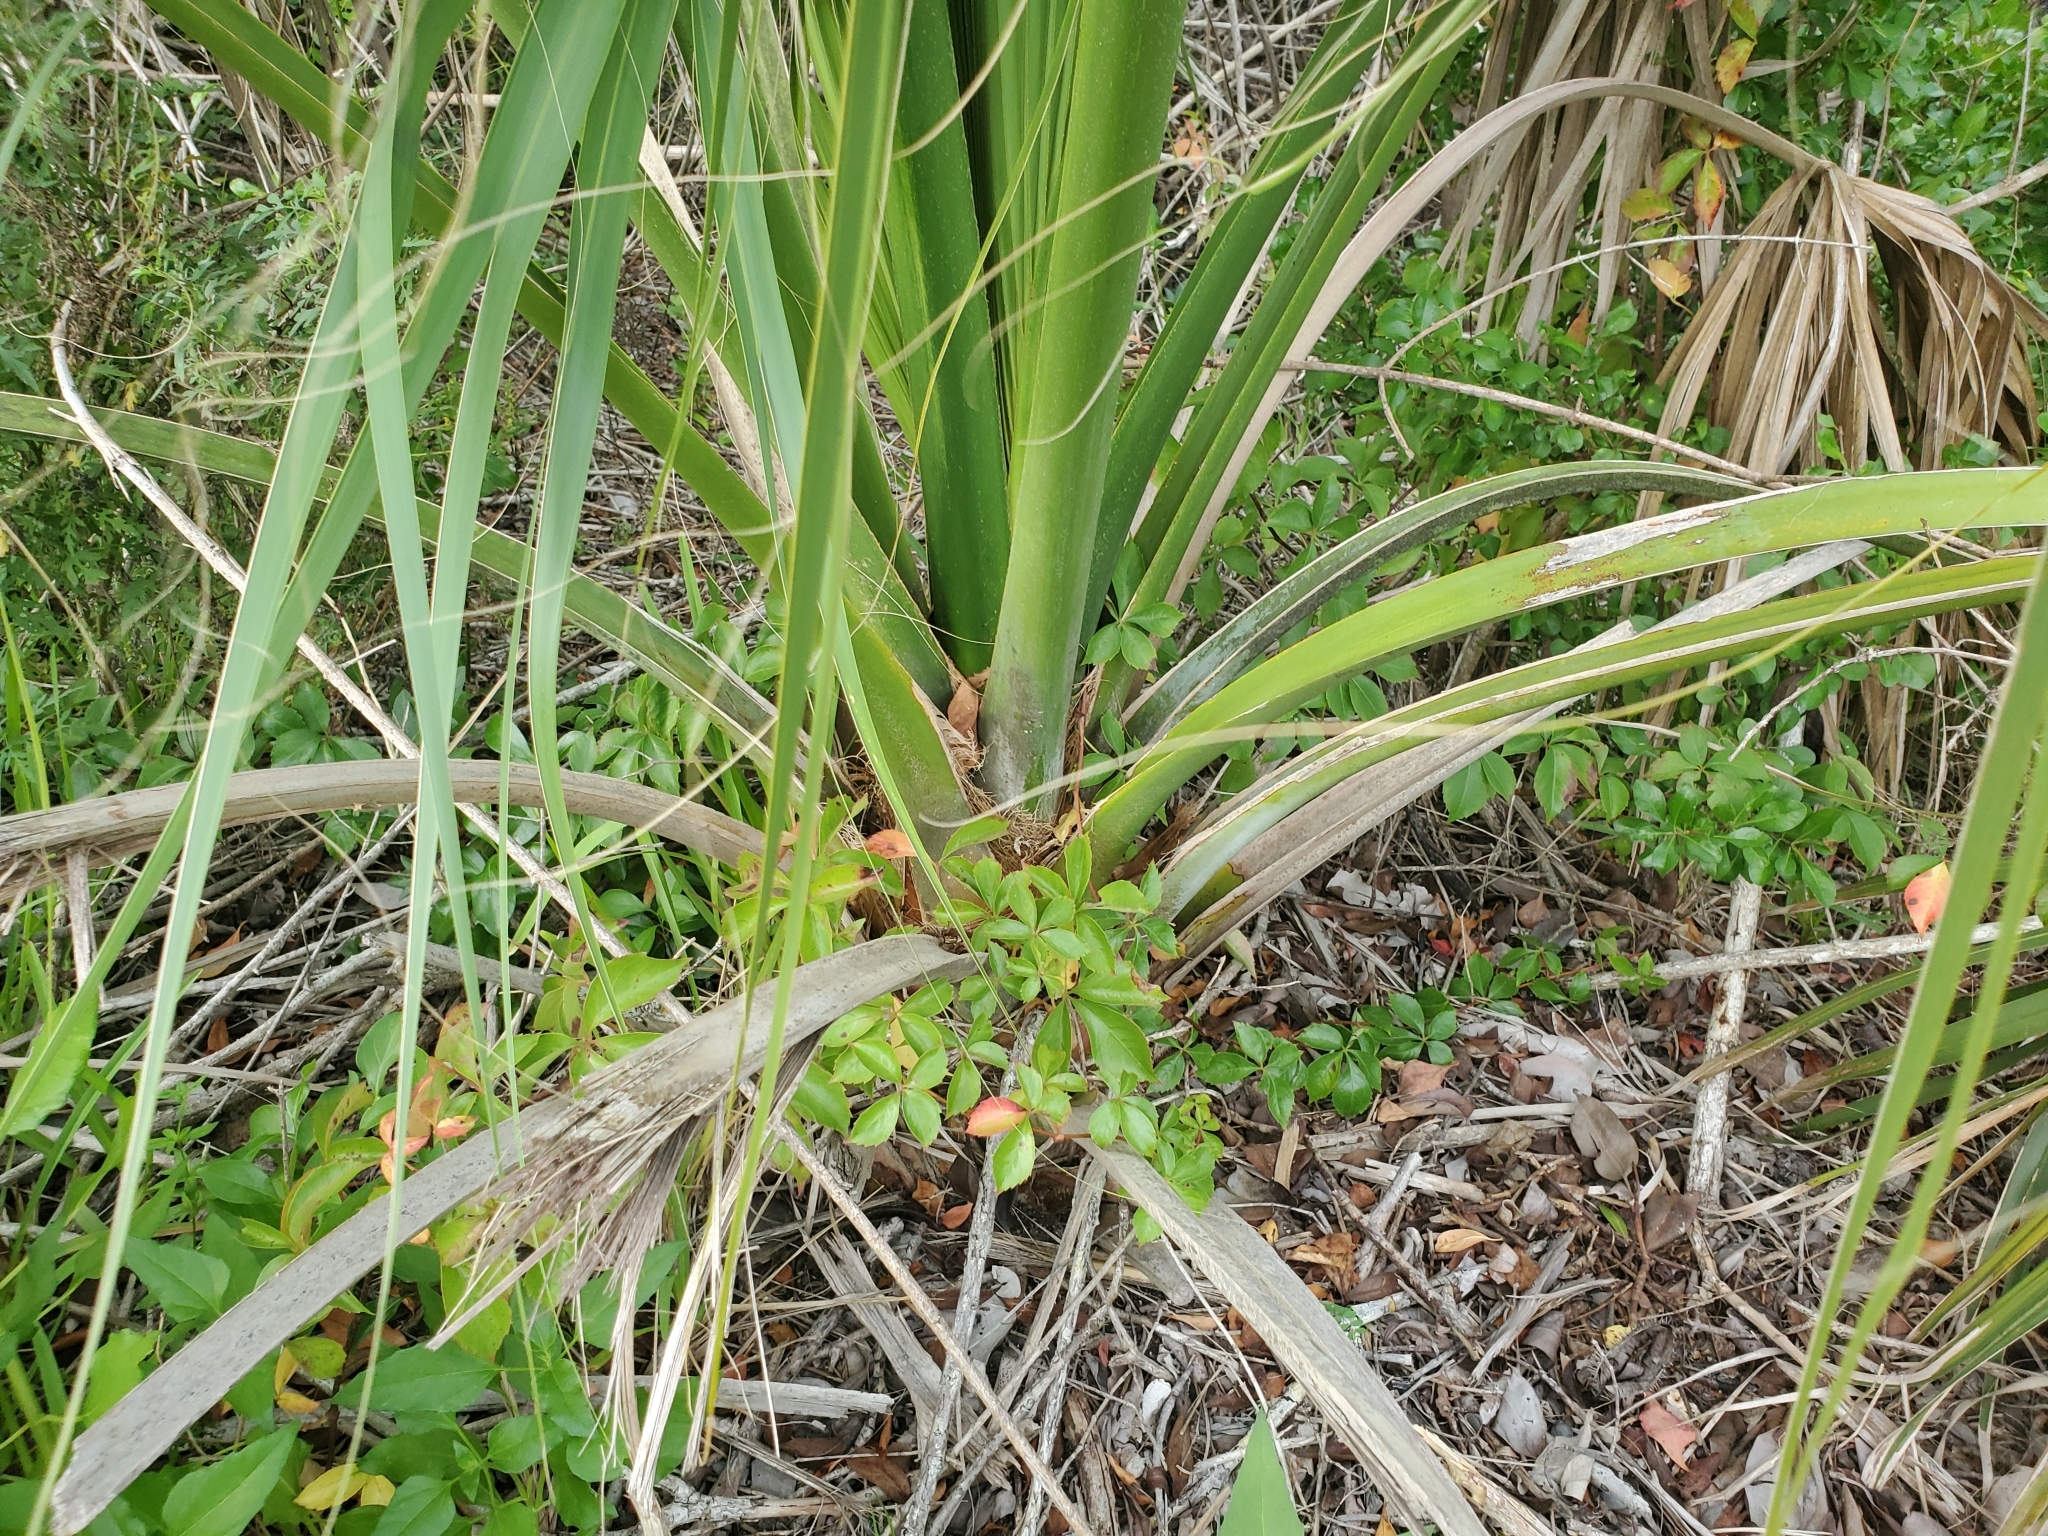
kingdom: Plantae
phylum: Tracheophyta
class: Liliopsida
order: Arecales
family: Arecaceae
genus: Sabal
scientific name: Sabal palmetto
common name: Blue palmetto
